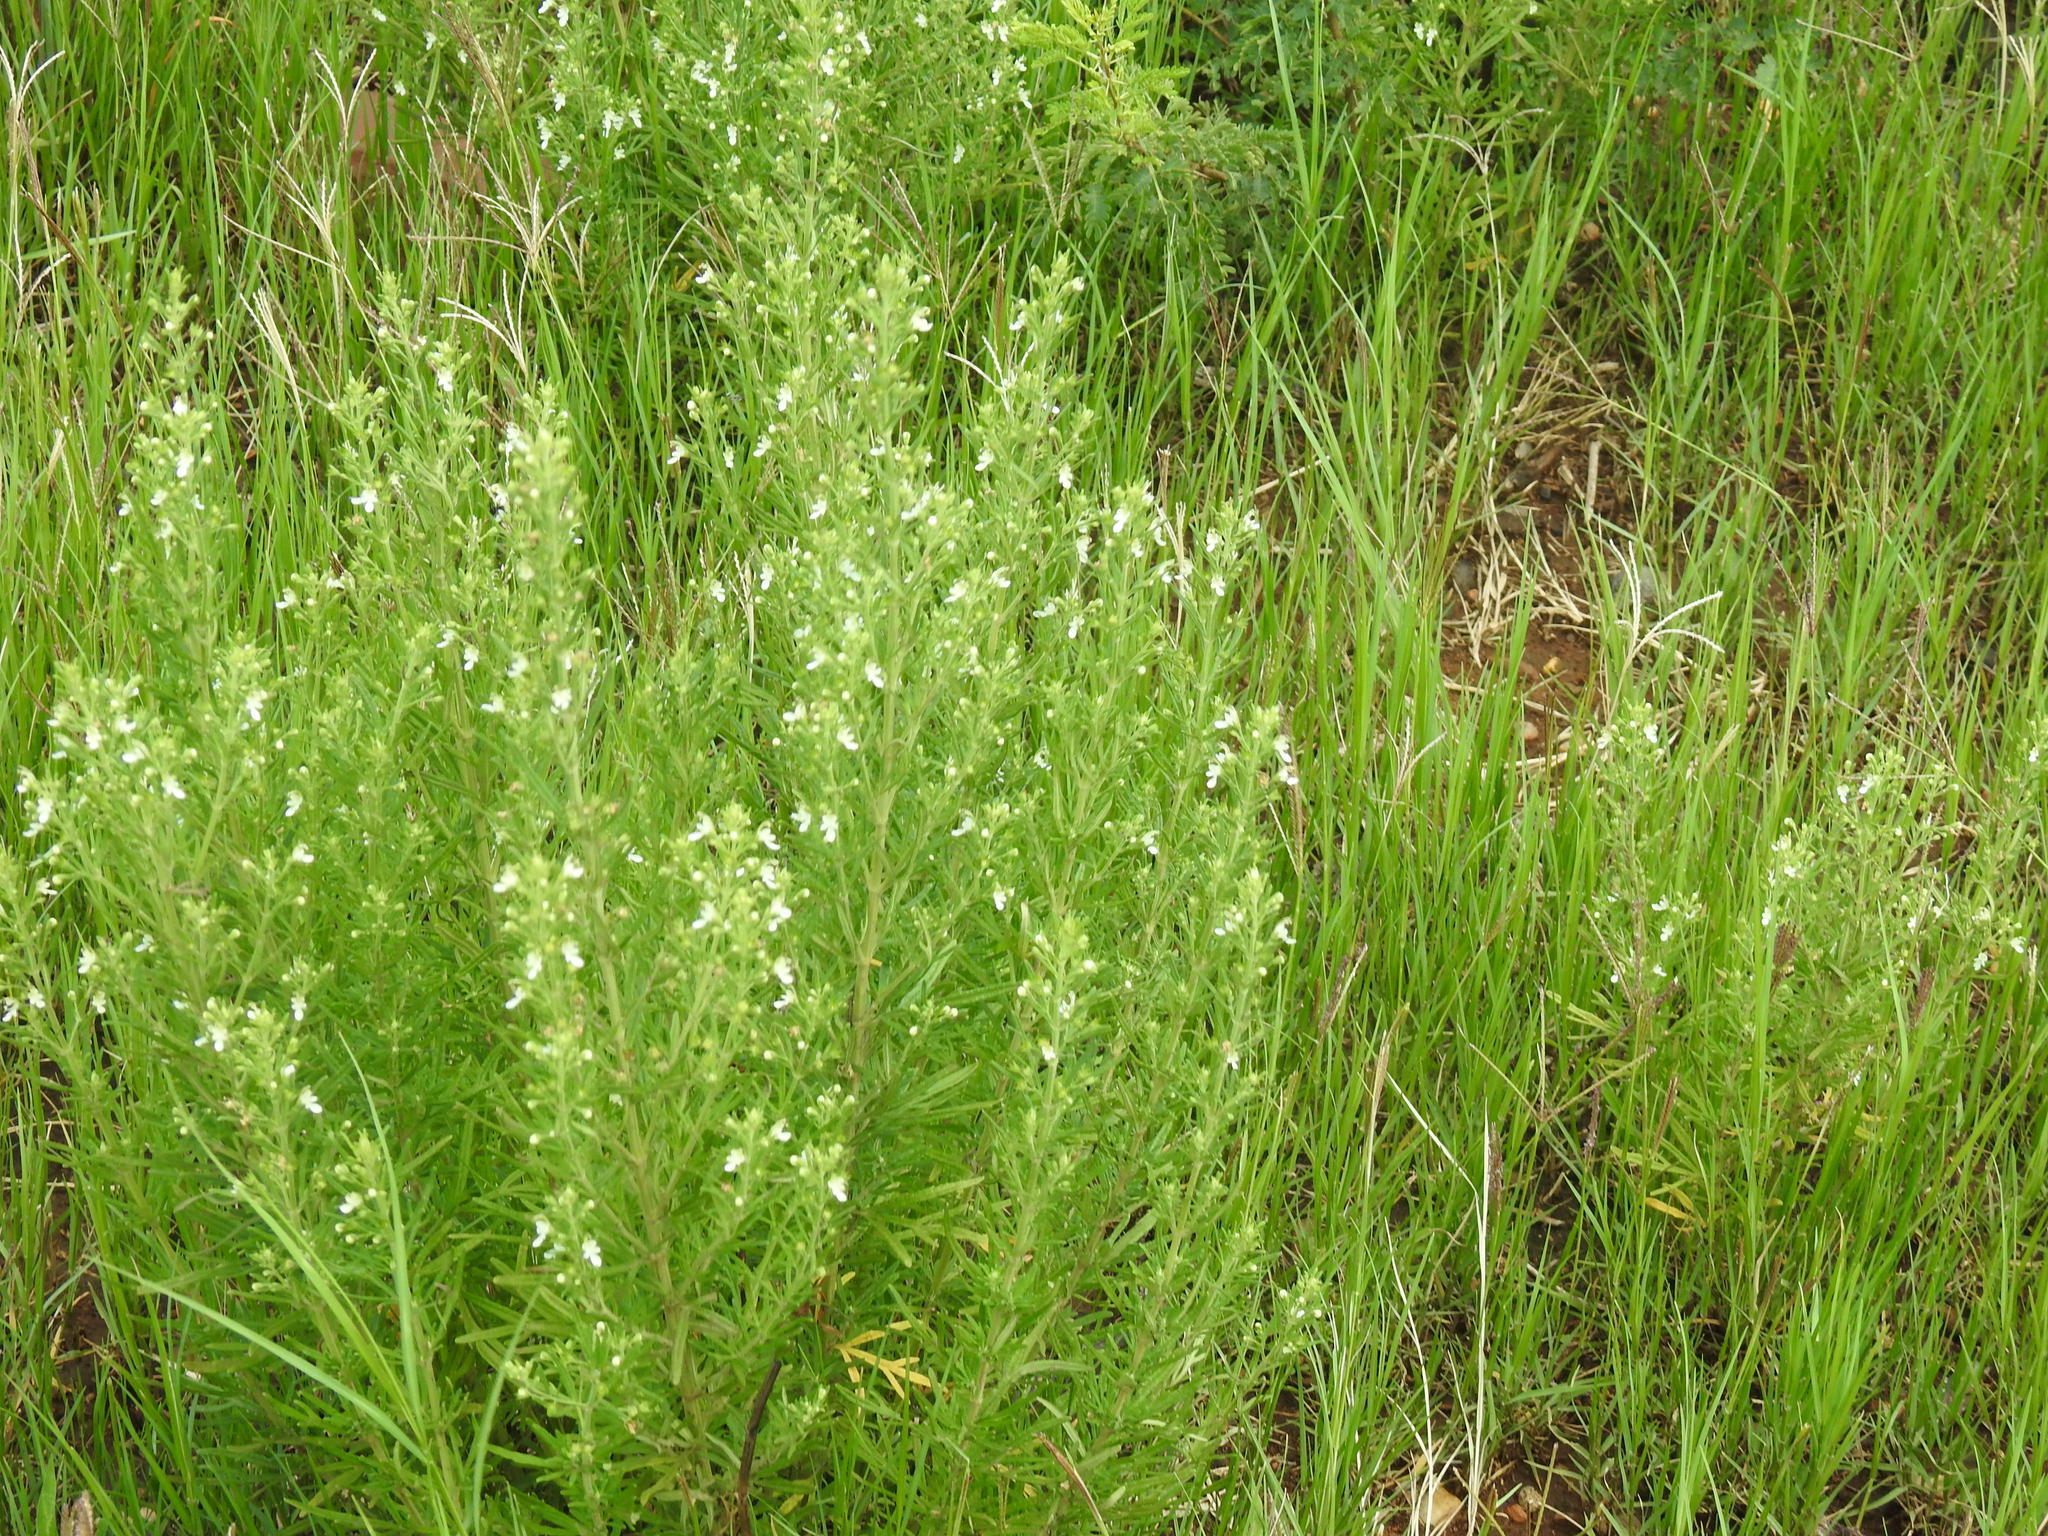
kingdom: Plantae
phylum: Tracheophyta
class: Magnoliopsida
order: Lamiales
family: Lamiaceae
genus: Teucrium
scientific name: Teucrium trifidum
